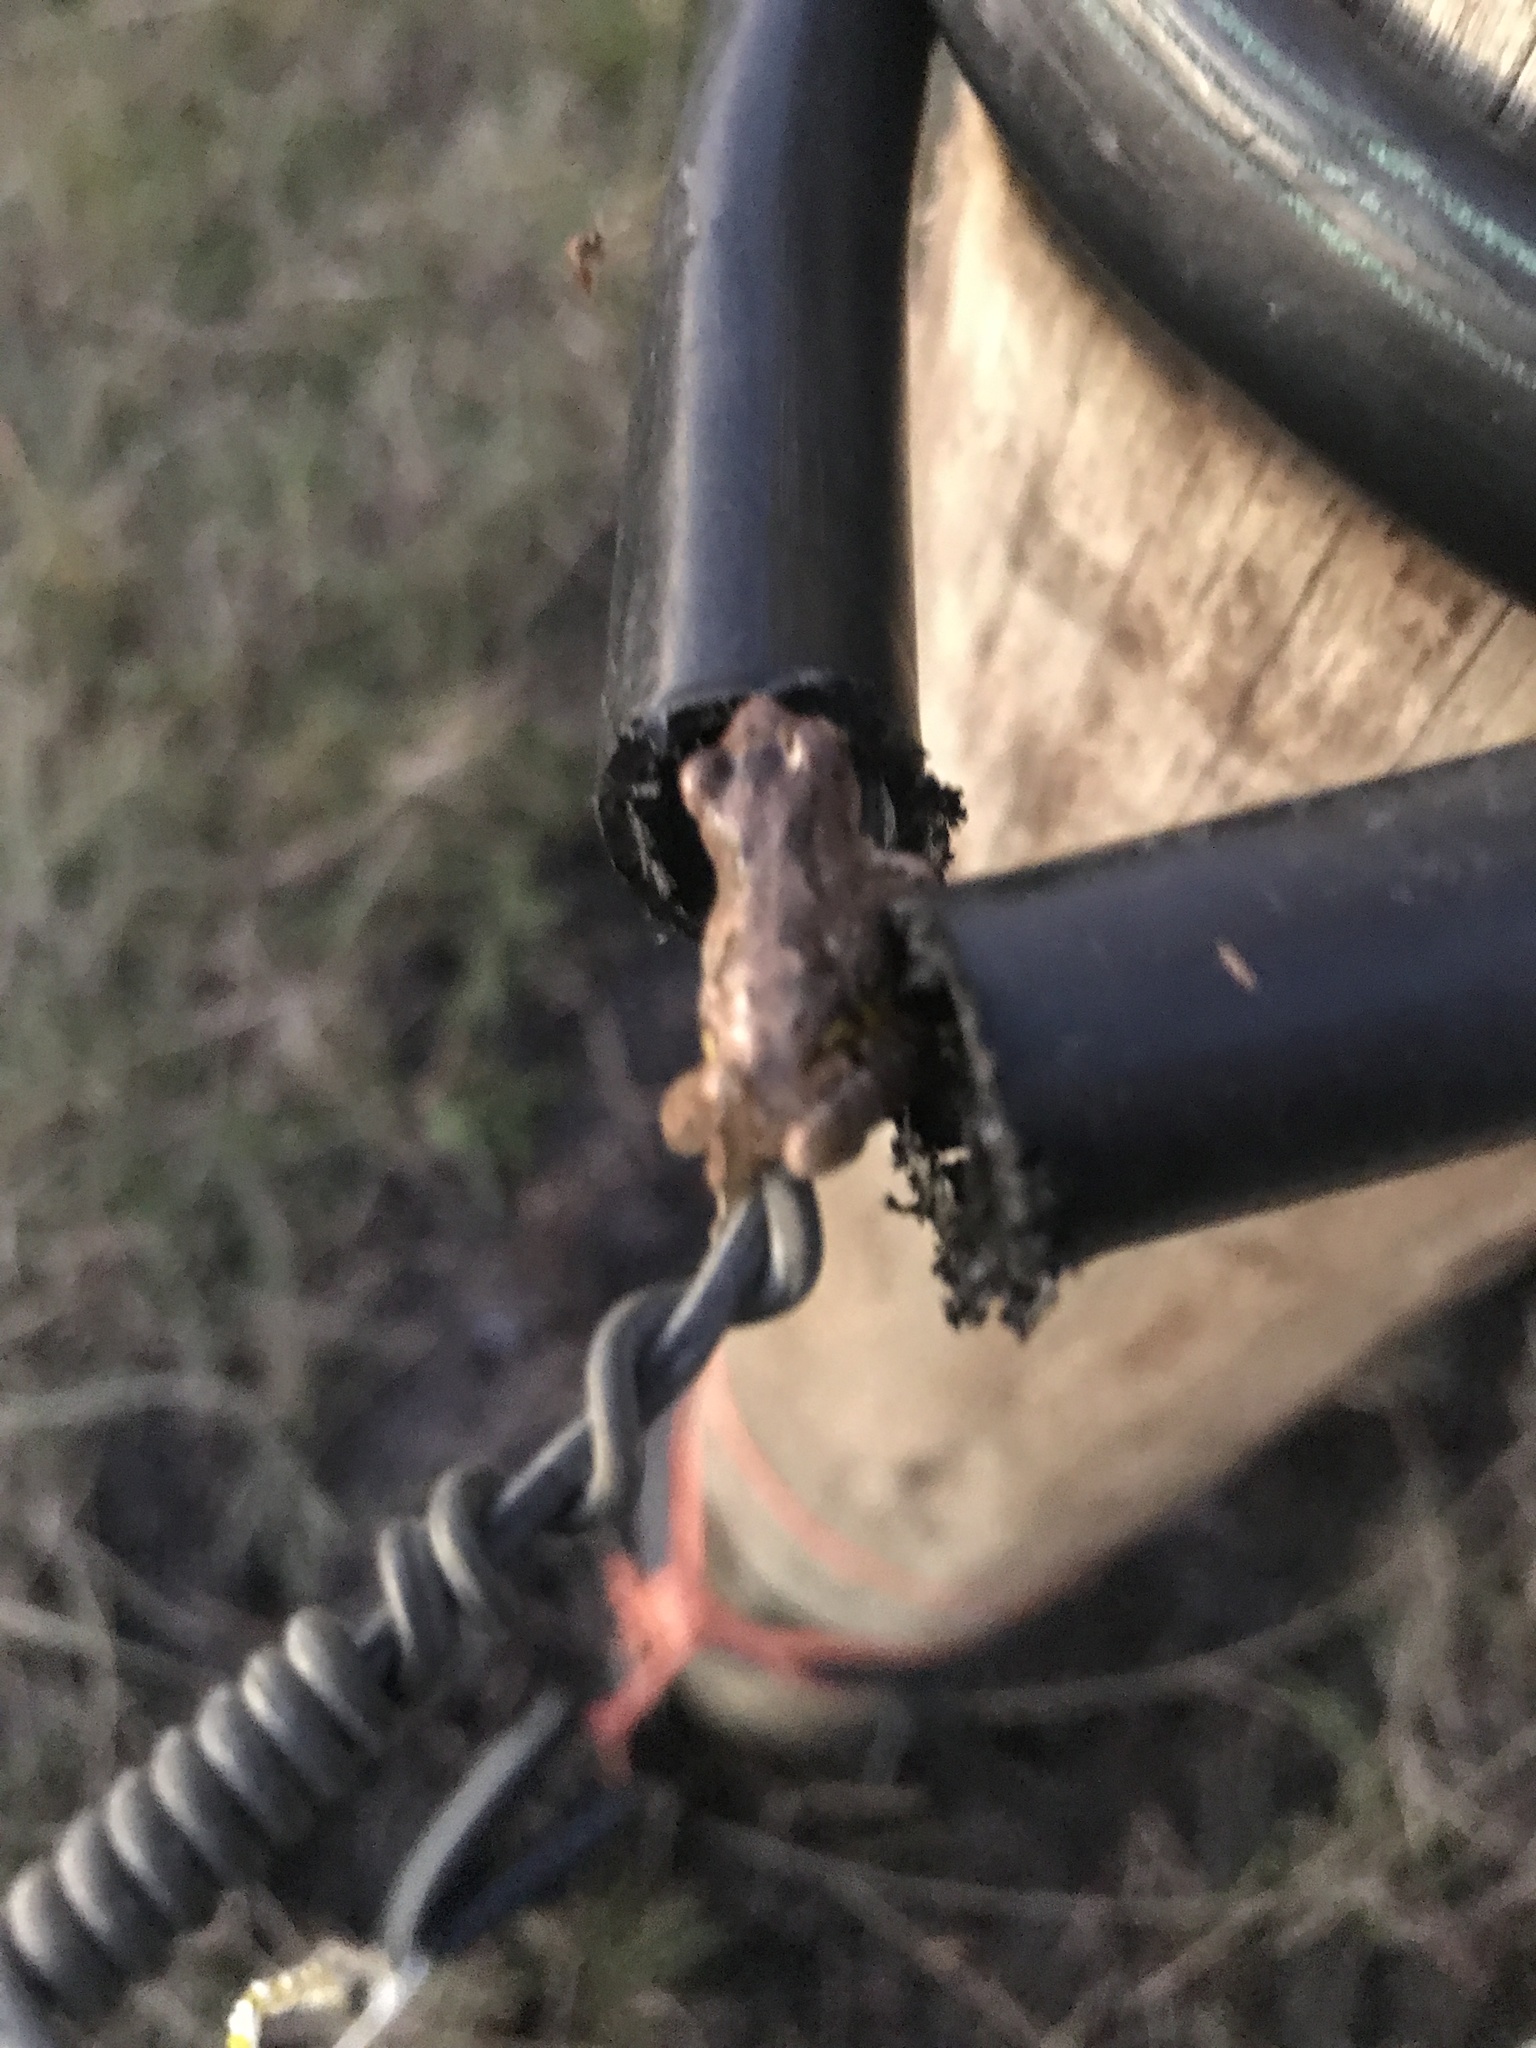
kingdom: Animalia
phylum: Chordata
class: Amphibia
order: Anura
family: Hylidae
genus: Scinax
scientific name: Scinax granulatus
